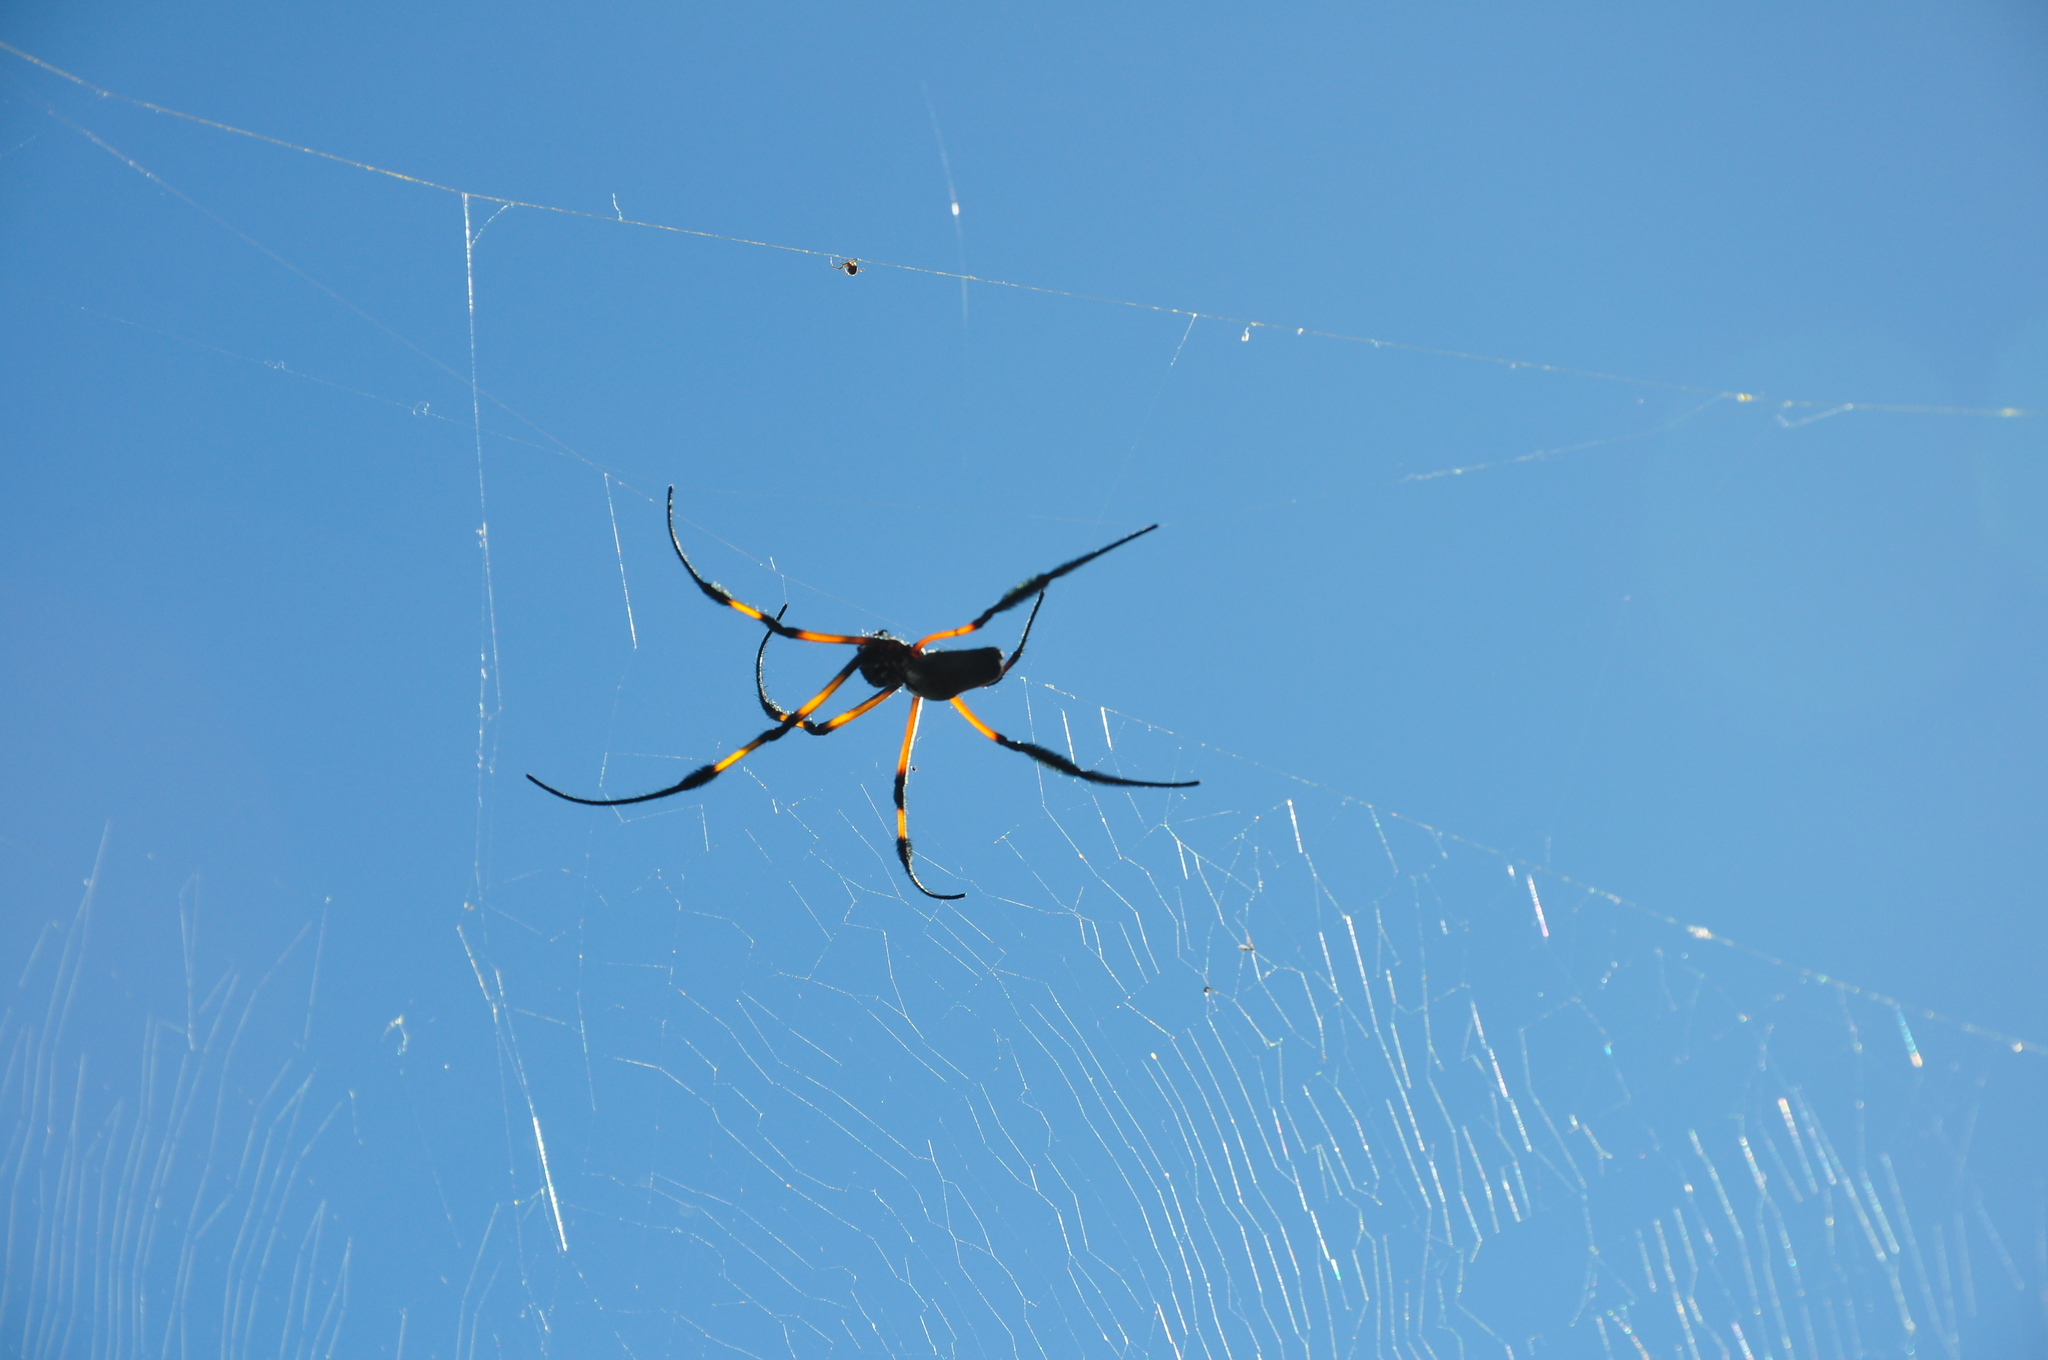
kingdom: Animalia
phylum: Arthropoda
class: Arachnida
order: Araneae
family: Araneidae
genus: Trichonephila
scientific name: Trichonephila inaurata
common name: Red-legged golden orb weaver
